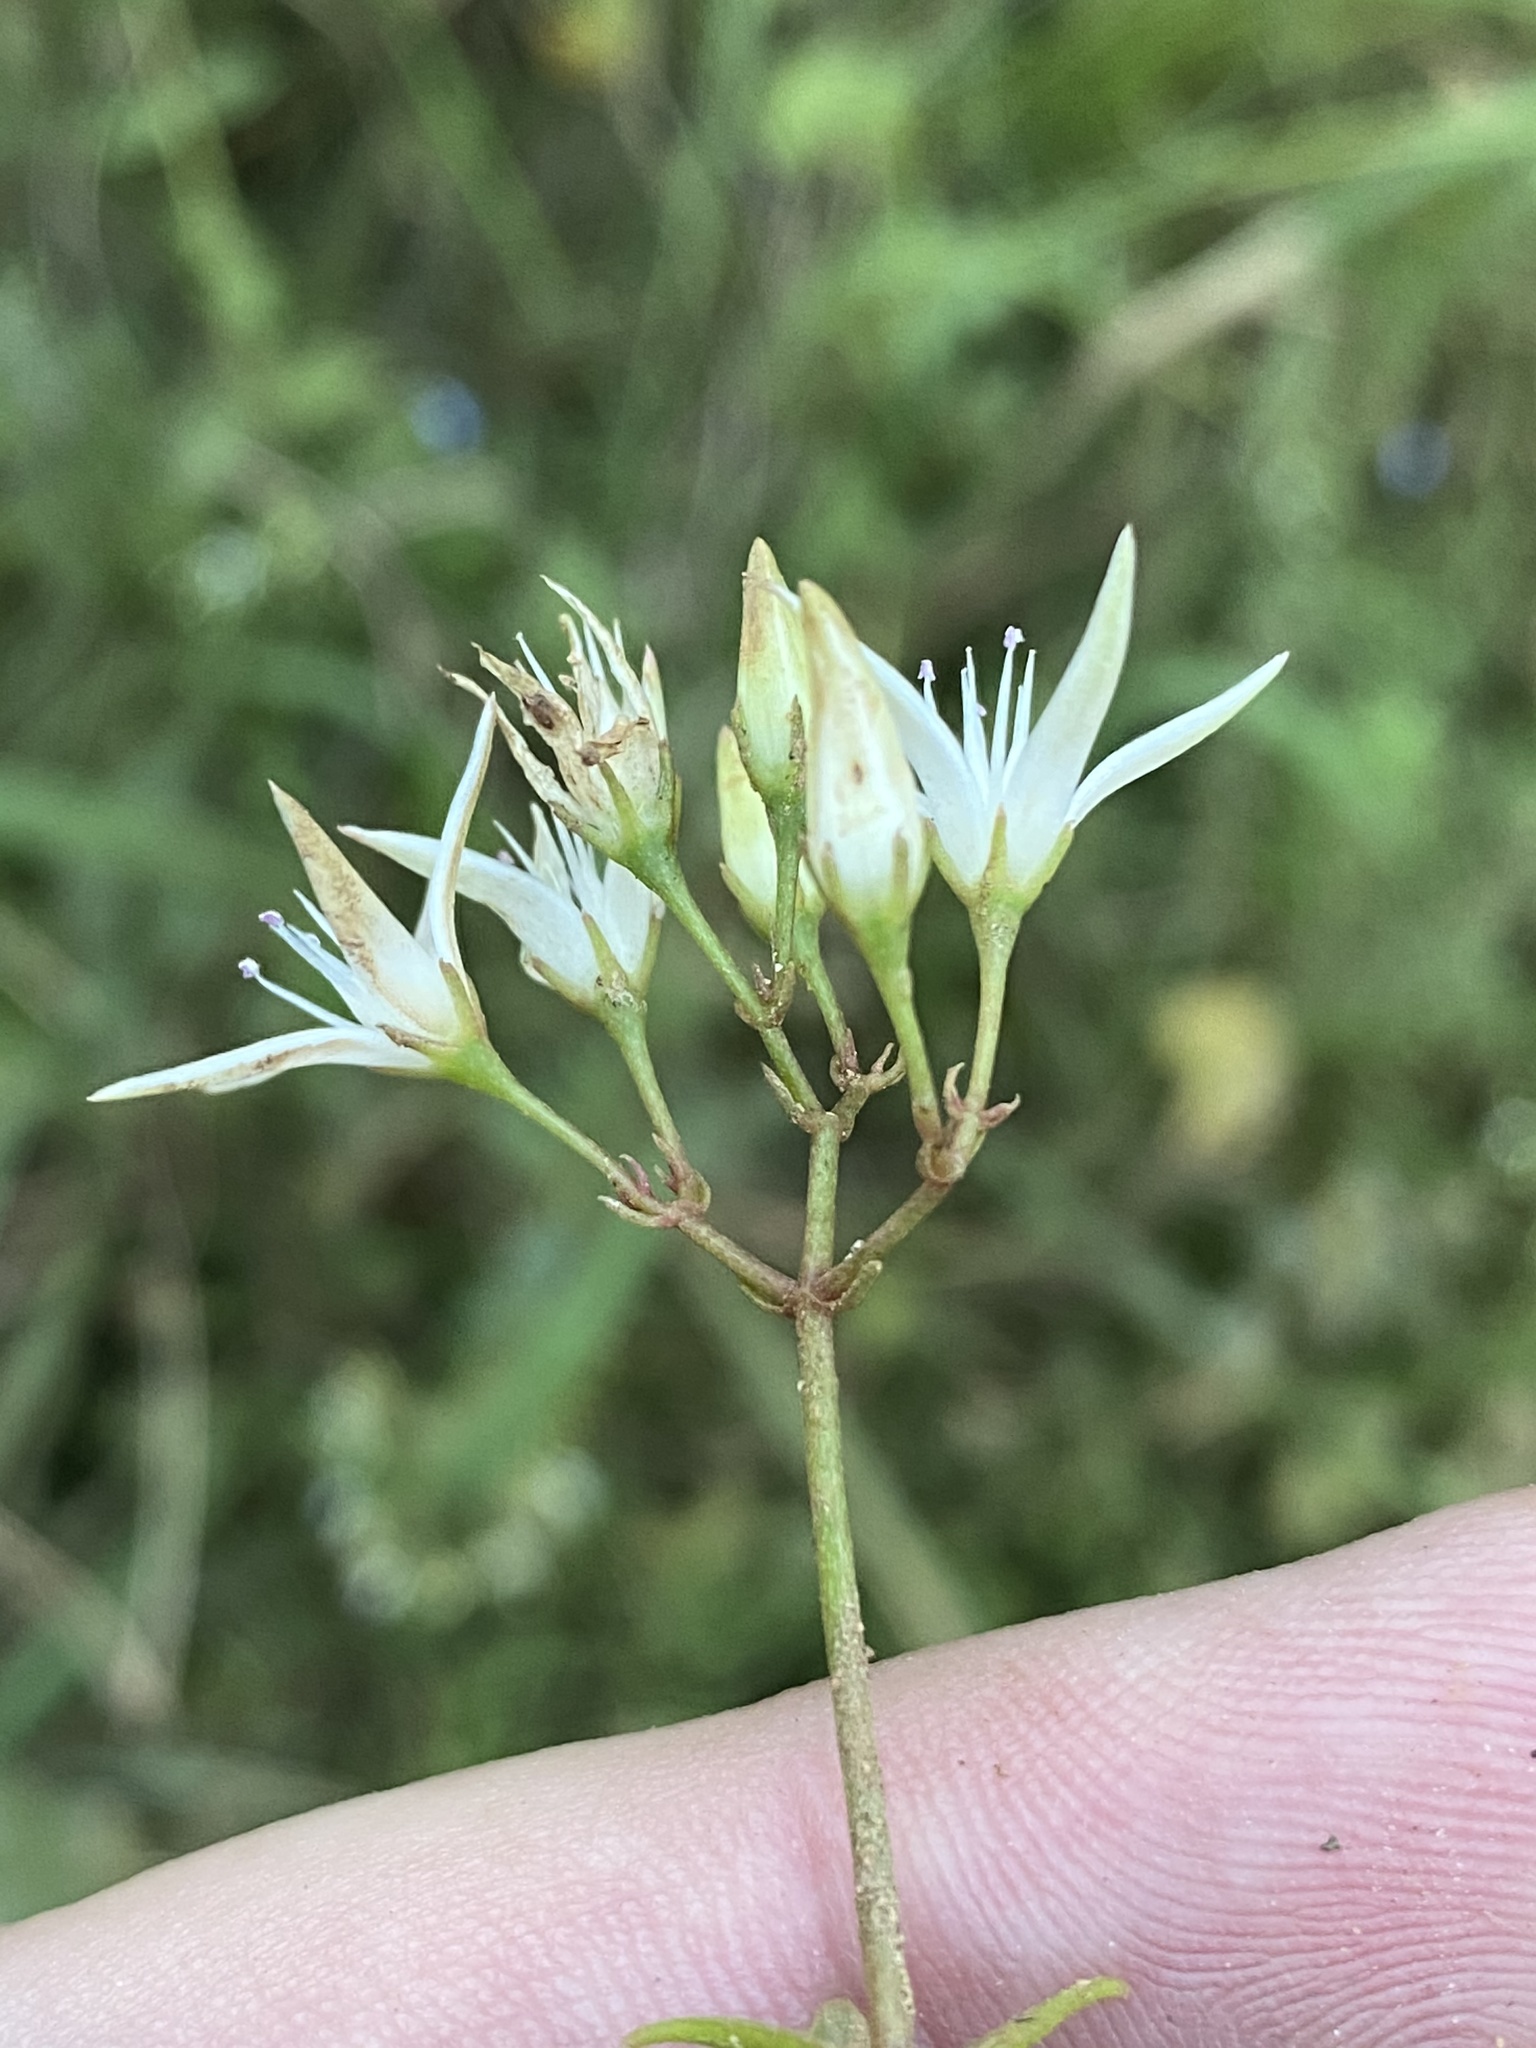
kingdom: Plantae
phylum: Tracheophyta
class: Magnoliopsida
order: Saxifragales
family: Crassulaceae
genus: Crassula
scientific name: Crassula sarmentosa
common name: Jade-tree
